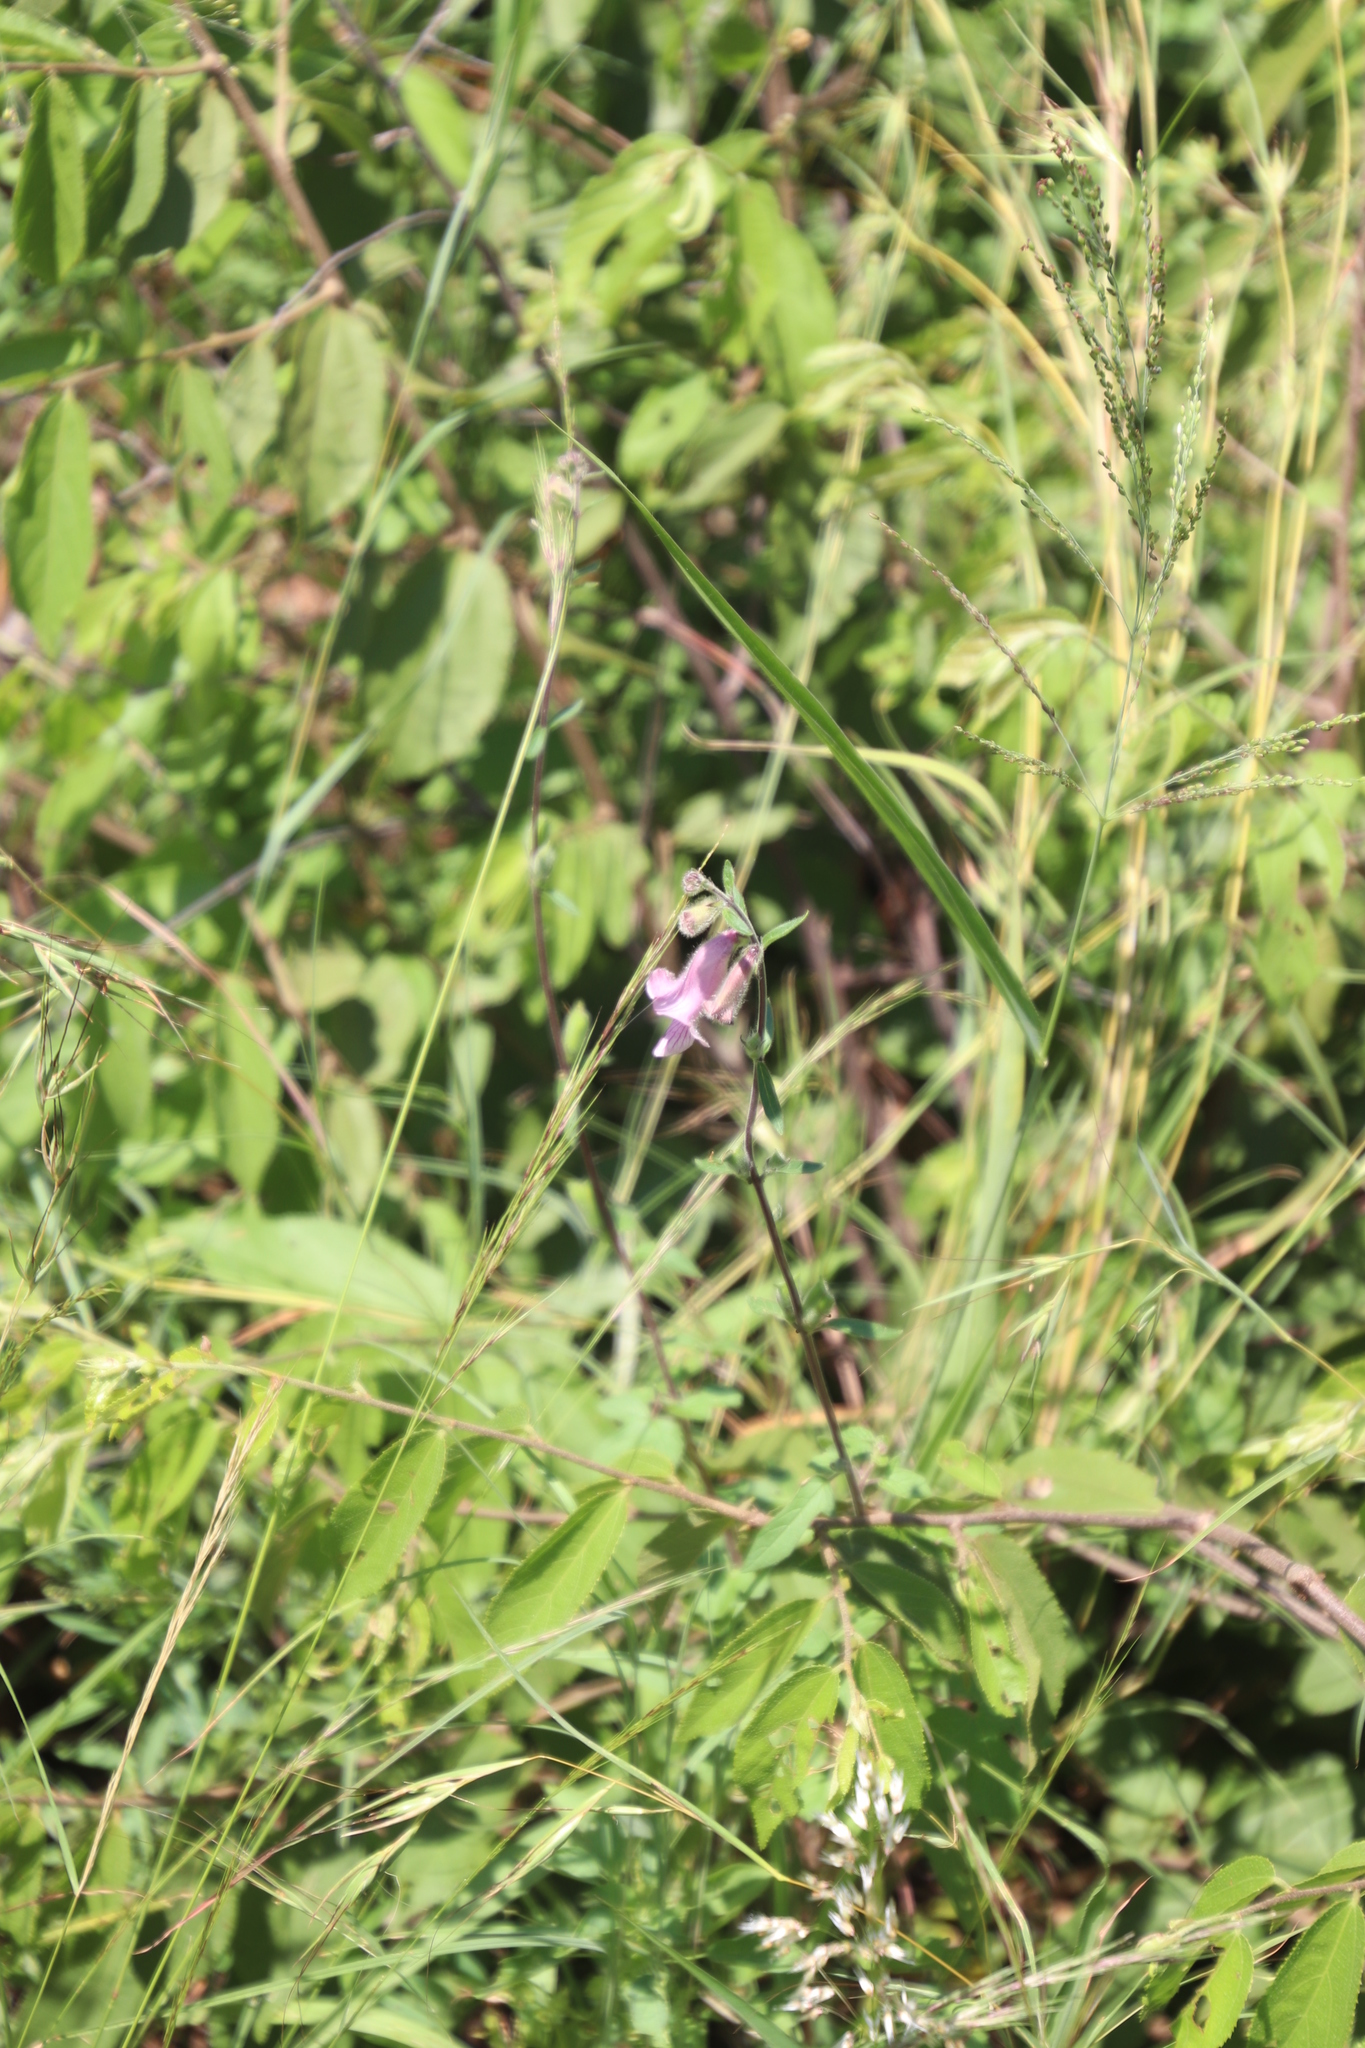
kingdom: Plantae
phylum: Tracheophyta
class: Magnoliopsida
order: Lamiales
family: Pedaliaceae
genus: Sesamum
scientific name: Sesamum trilobum
